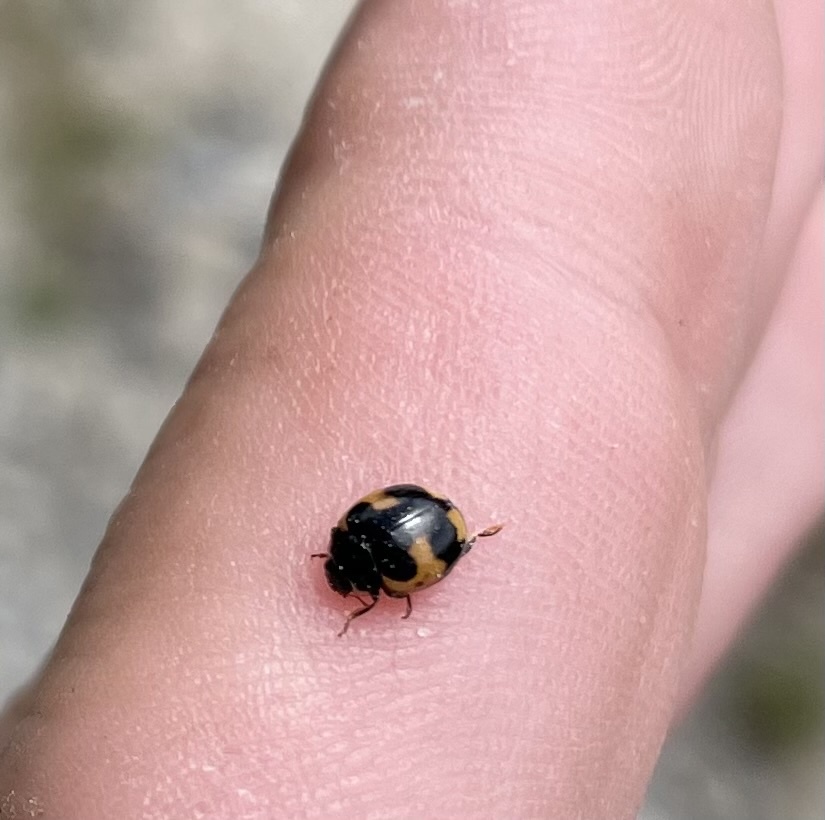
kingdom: Animalia
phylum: Arthropoda
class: Insecta
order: Coleoptera
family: Coccinellidae
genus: Ceratomegilla
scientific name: Ceratomegilla alpina
